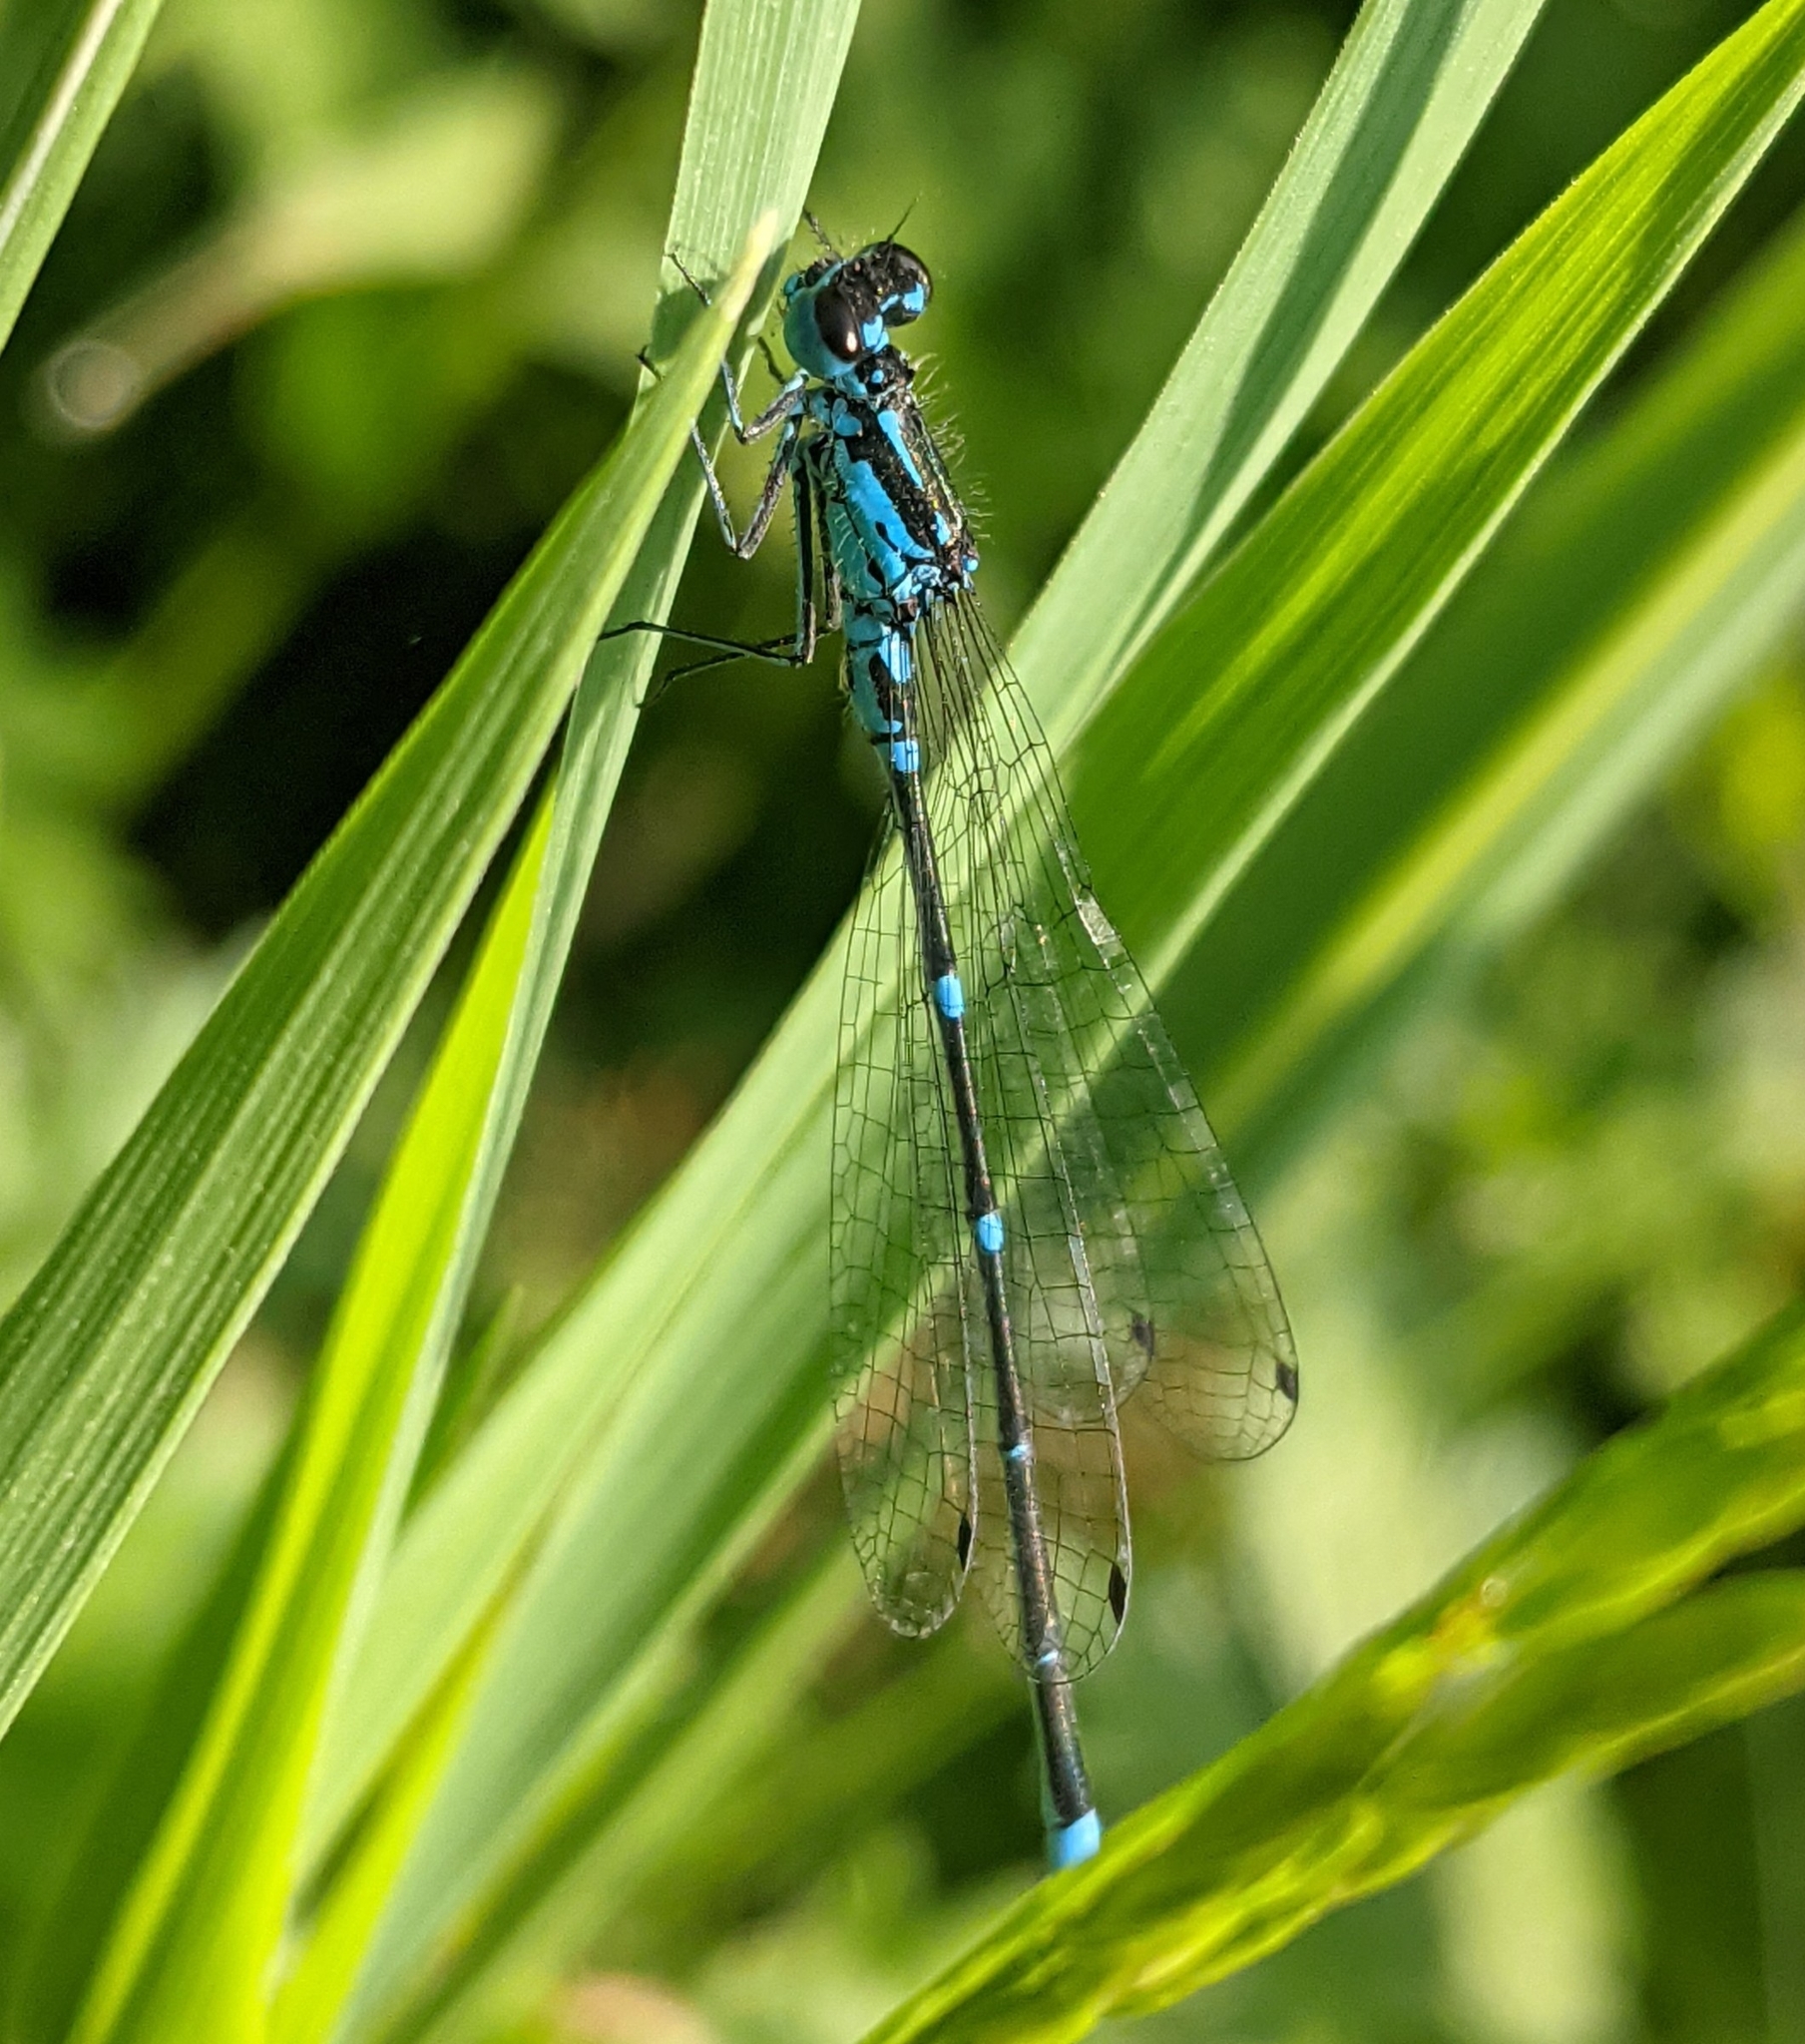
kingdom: Animalia
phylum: Arthropoda
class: Insecta
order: Odonata
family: Coenagrionidae
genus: Coenagrion
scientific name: Coenagrion pulchellum
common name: Variable bluet
